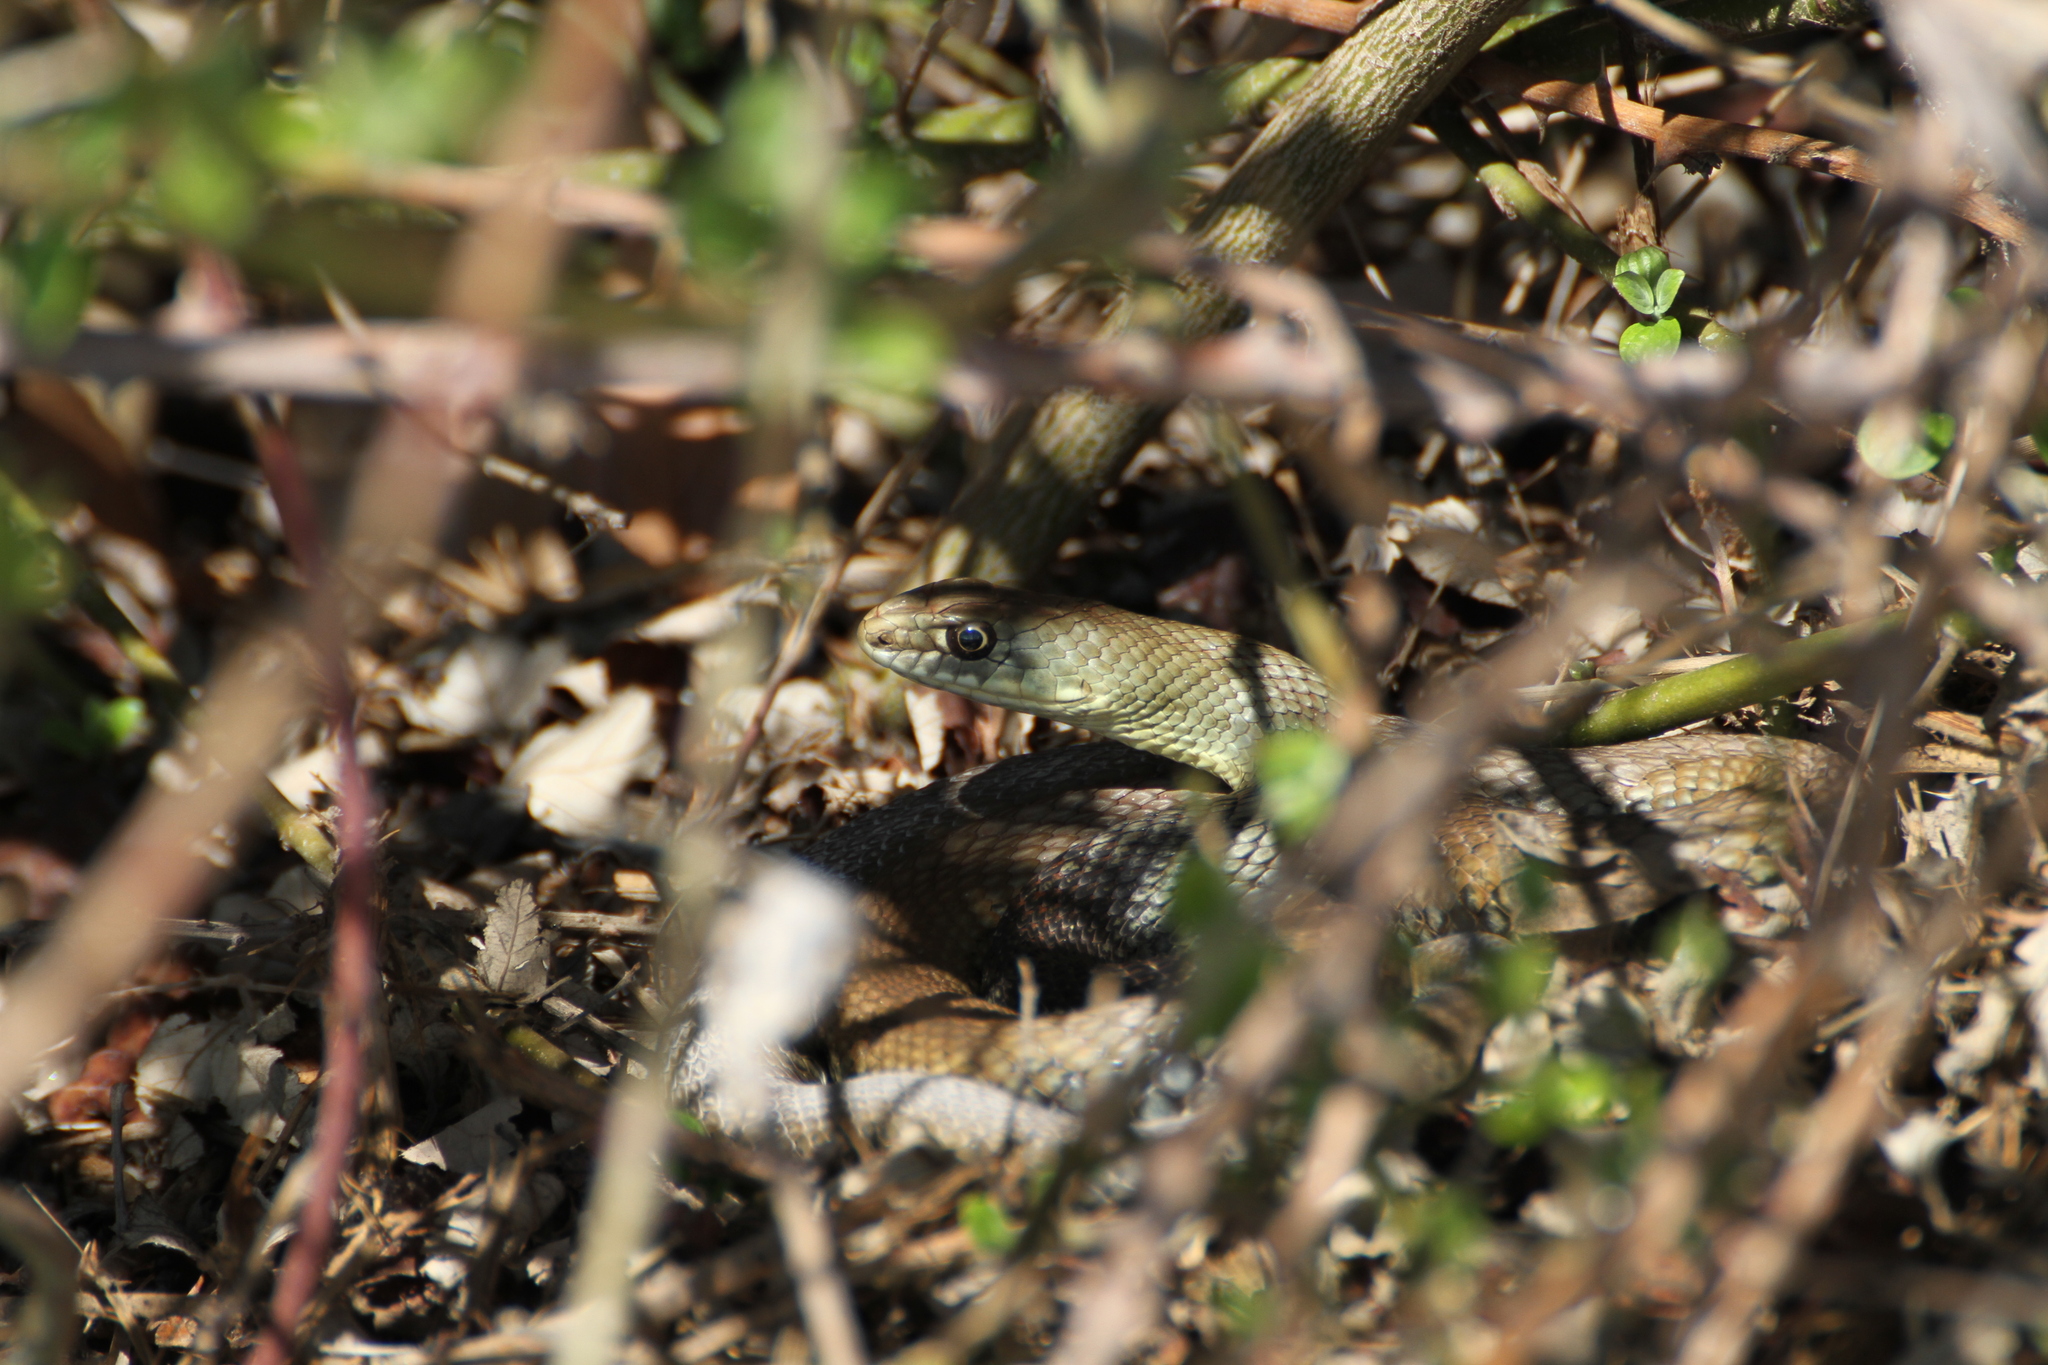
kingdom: Animalia
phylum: Chordata
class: Squamata
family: Psammophiidae
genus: Malpolon
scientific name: Malpolon monspessulanus
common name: Montpellier snake
